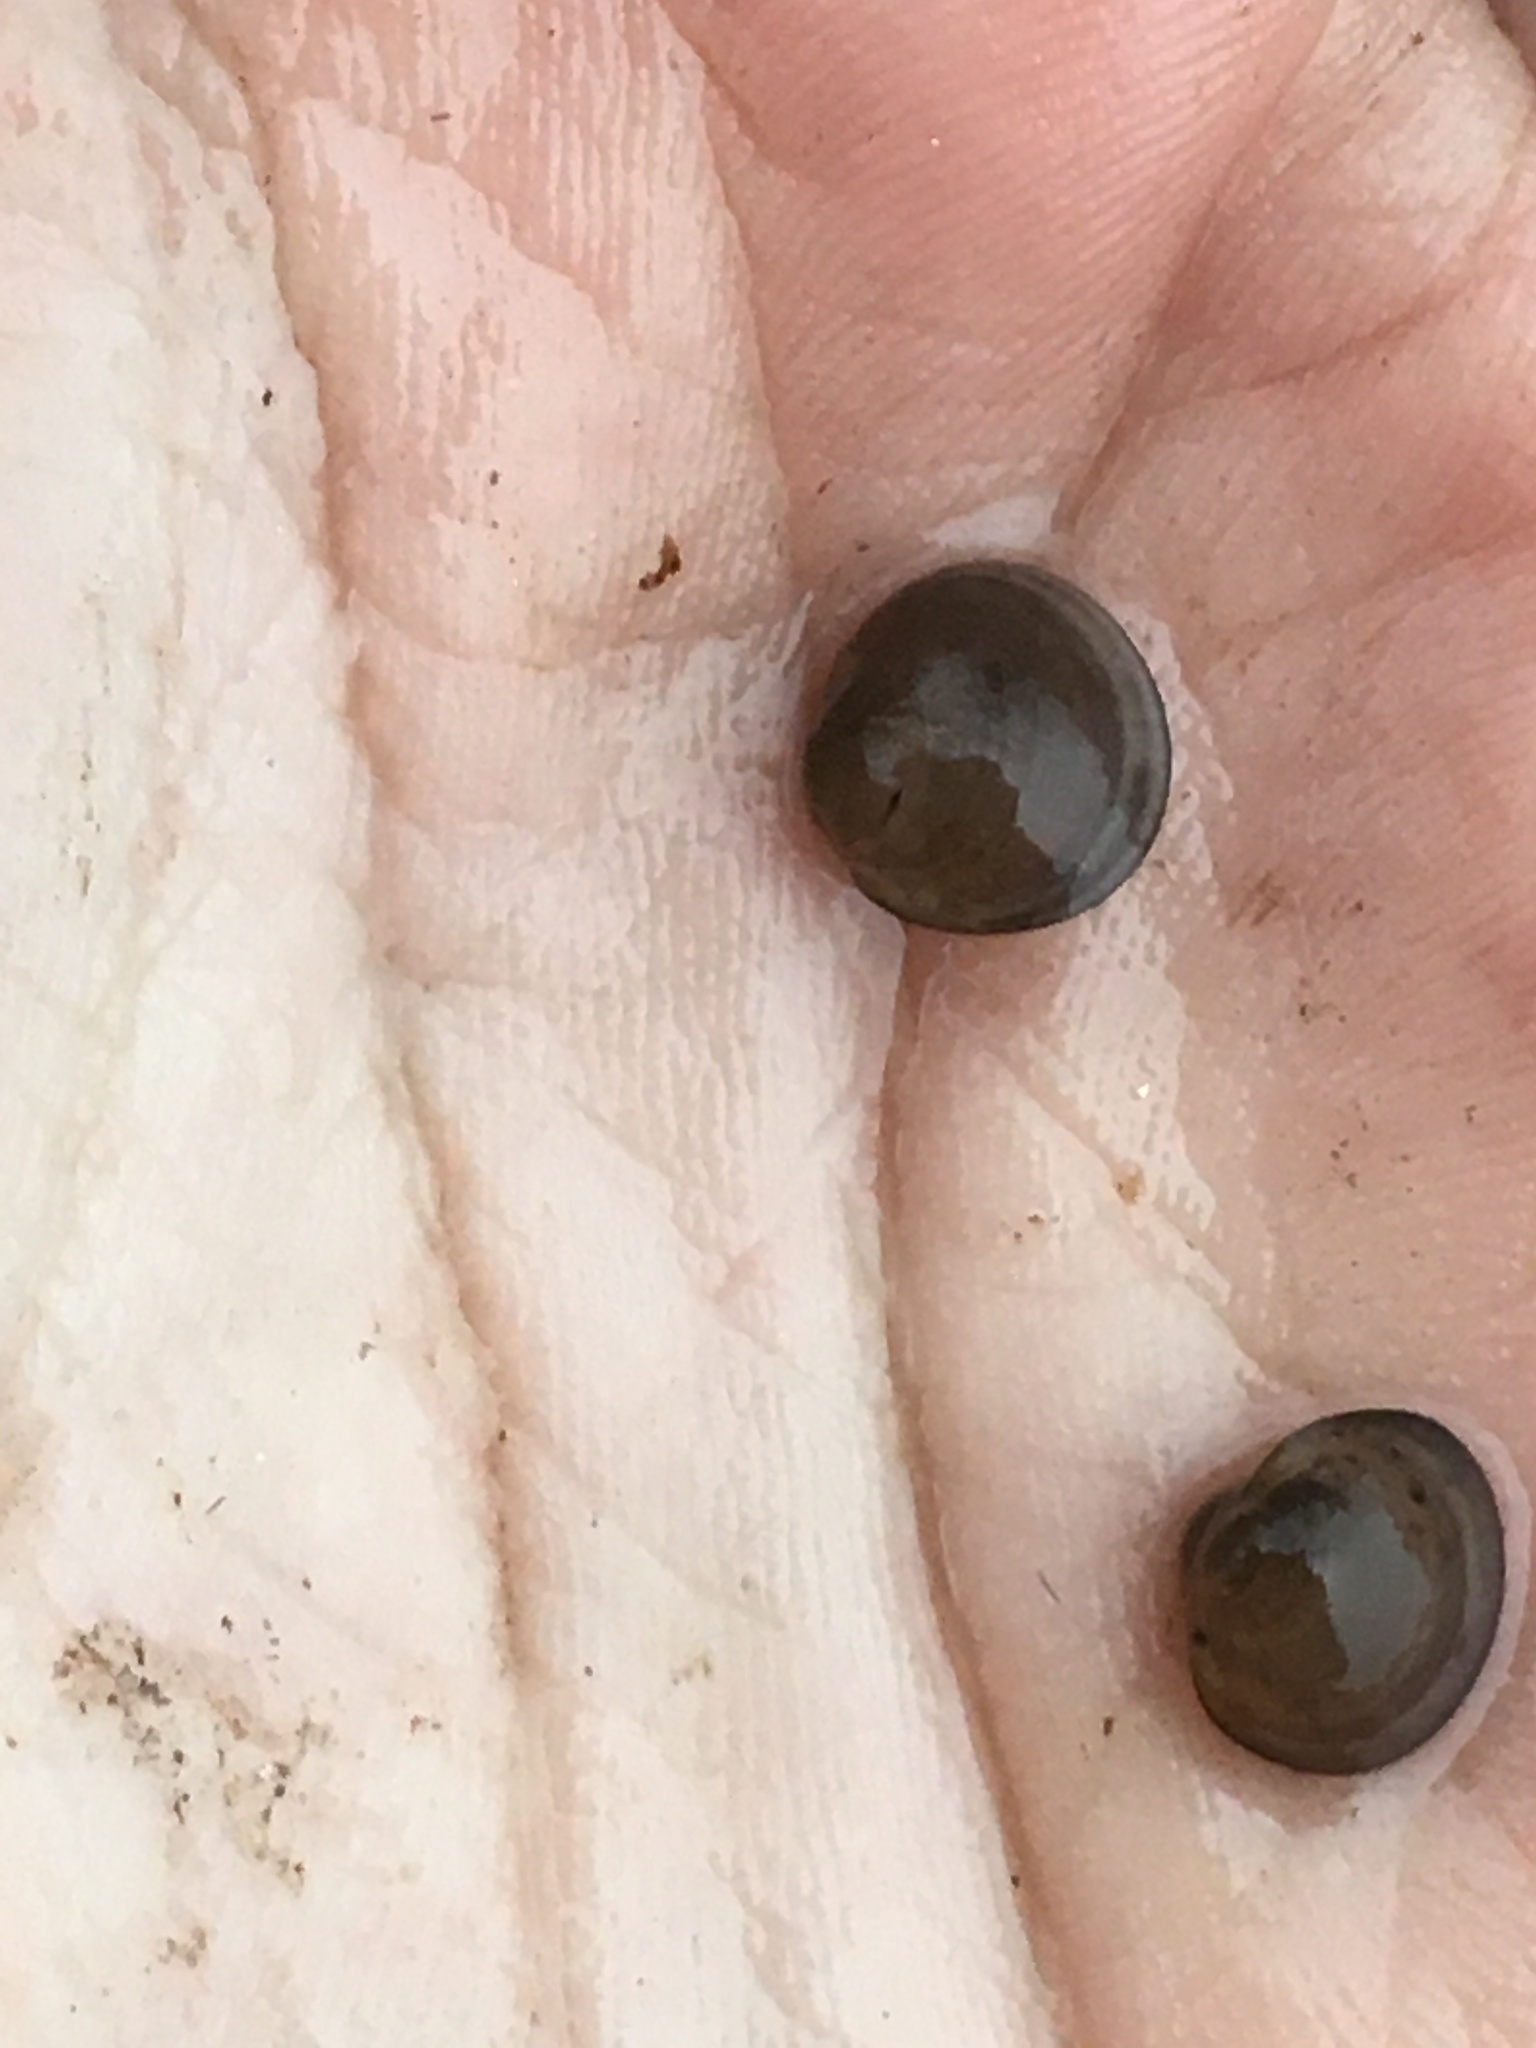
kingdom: Animalia
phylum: Mollusca
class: Bivalvia
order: Sphaeriida
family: Sphaeriidae
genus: Musculium
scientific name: Musculium partumeium
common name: Swamp fingernailclam
